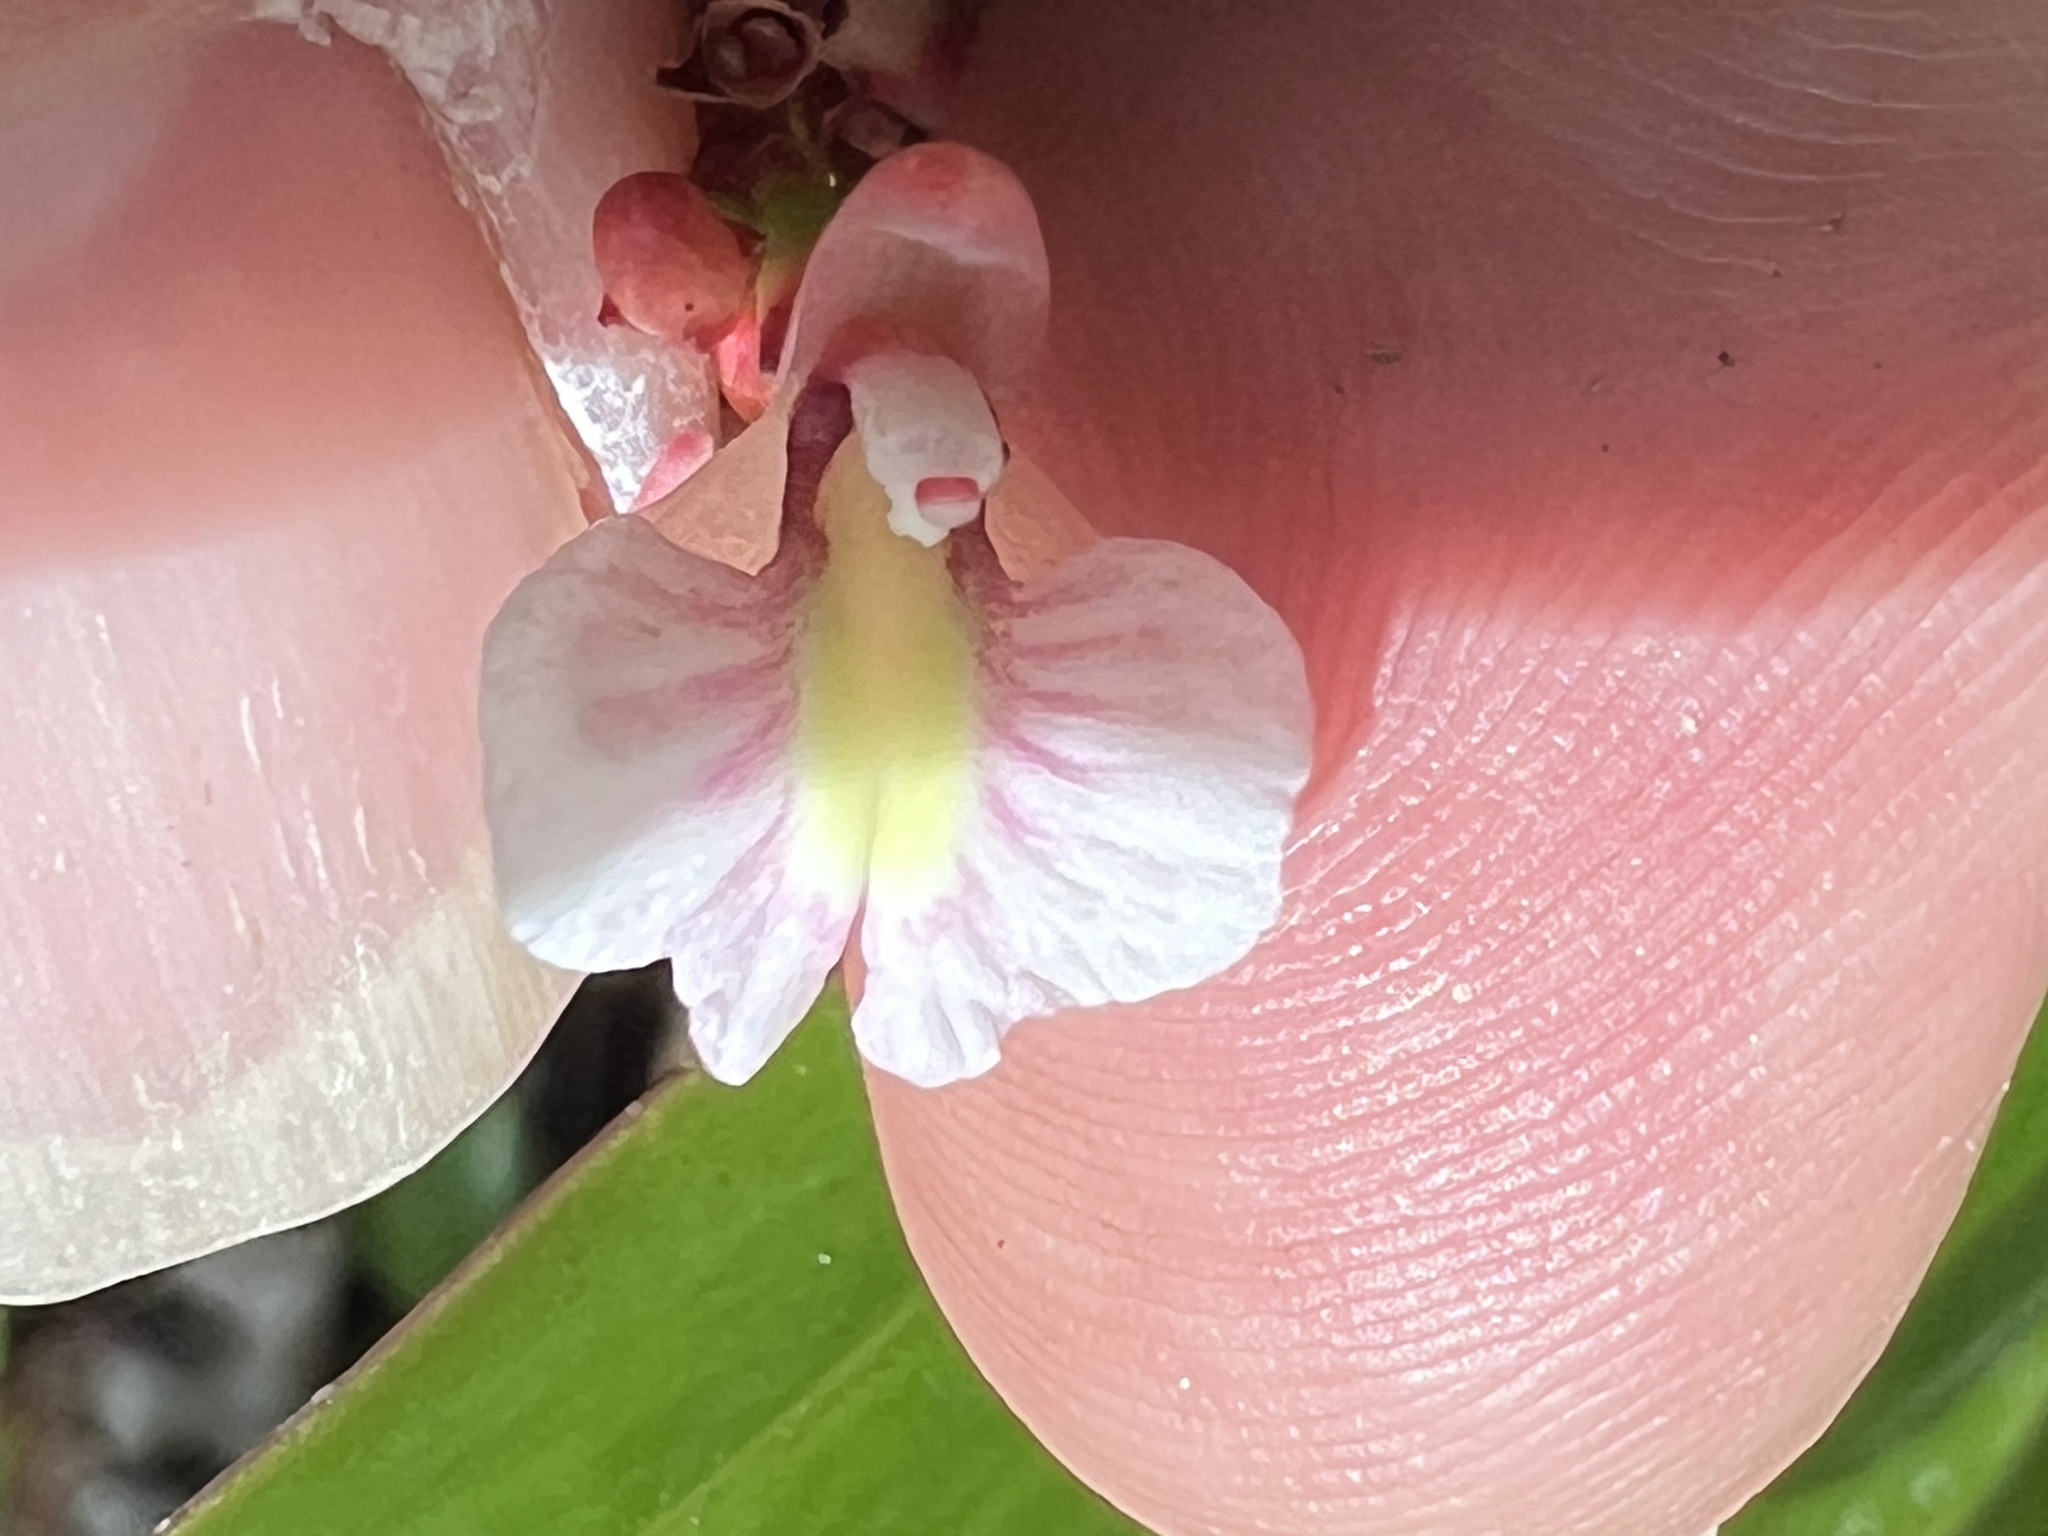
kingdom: Plantae
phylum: Tracheophyta
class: Liliopsida
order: Zingiberales
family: Zingiberaceae
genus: Alpinia
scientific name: Alpinia caerulea
